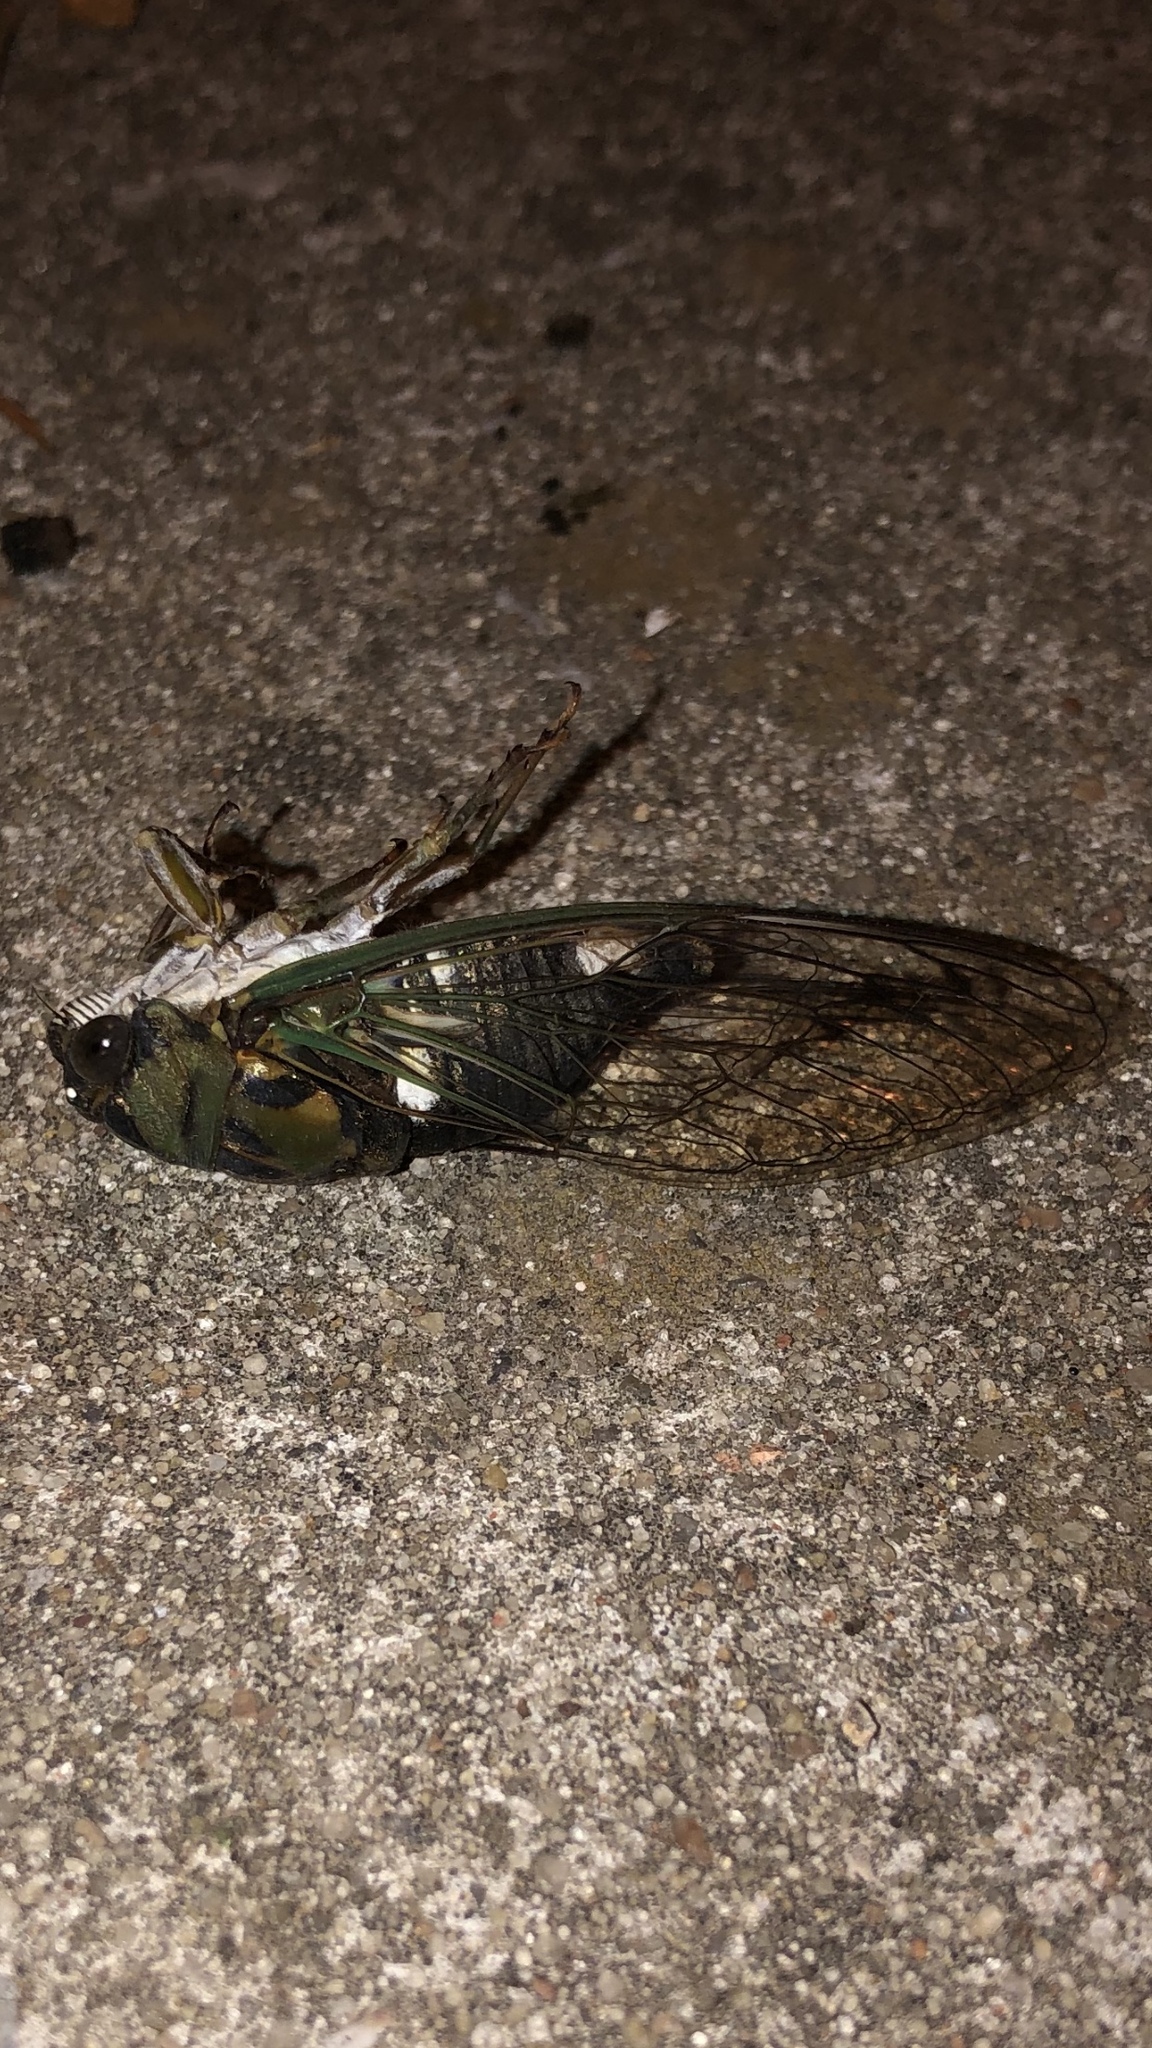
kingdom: Animalia
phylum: Arthropoda
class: Insecta
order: Hemiptera
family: Cicadidae
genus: Neotibicen
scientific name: Neotibicen pruinosus
